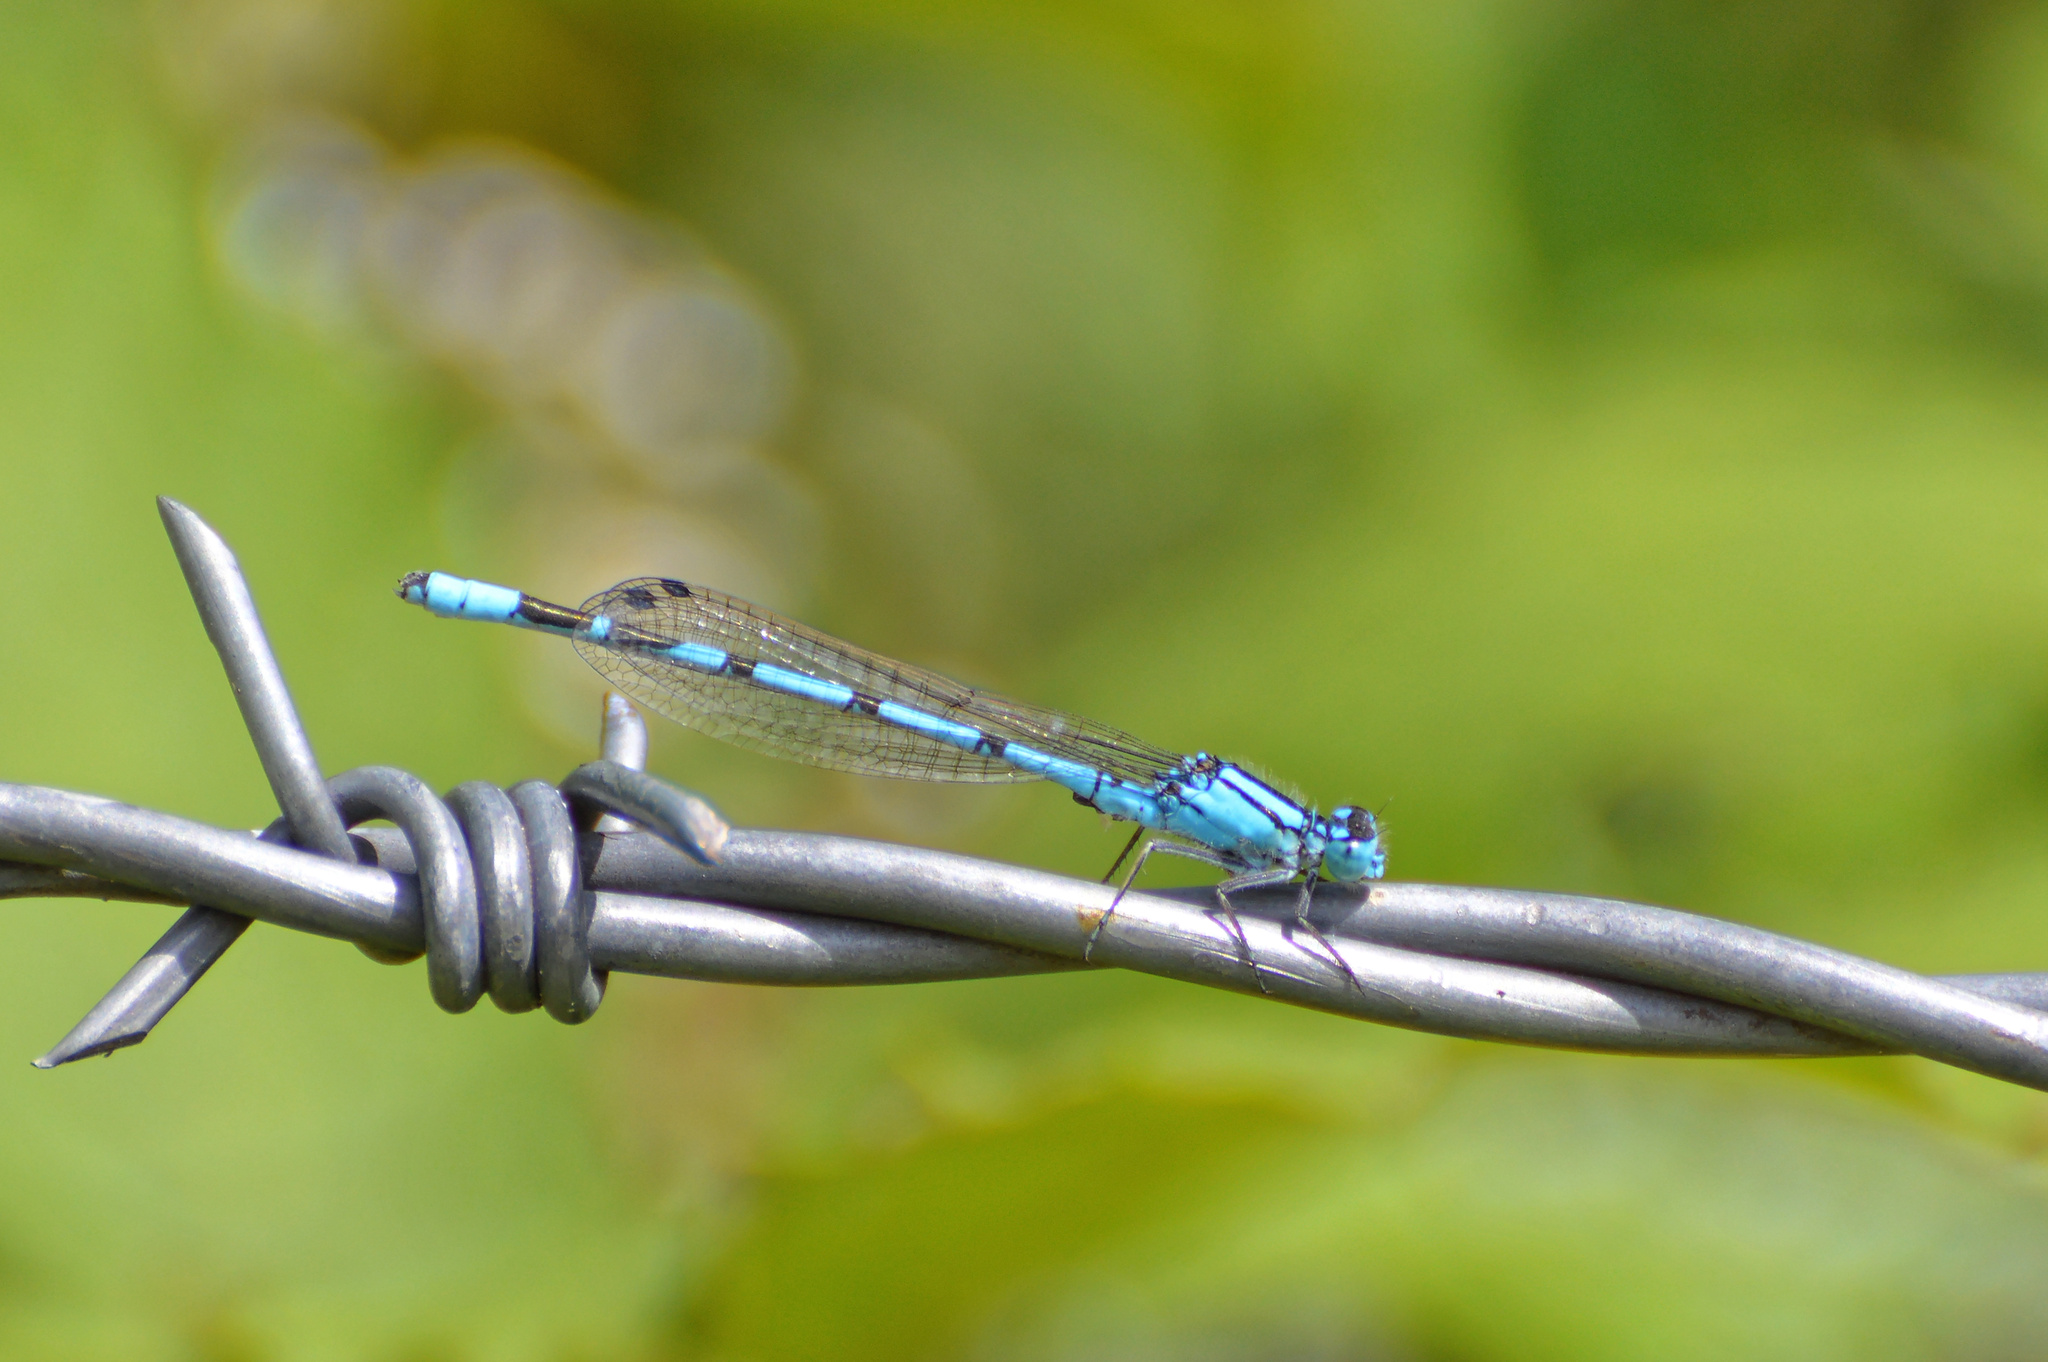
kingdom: Animalia
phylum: Arthropoda
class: Insecta
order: Odonata
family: Coenagrionidae
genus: Enallagma
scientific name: Enallagma cyathigerum
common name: Common blue damselfly
